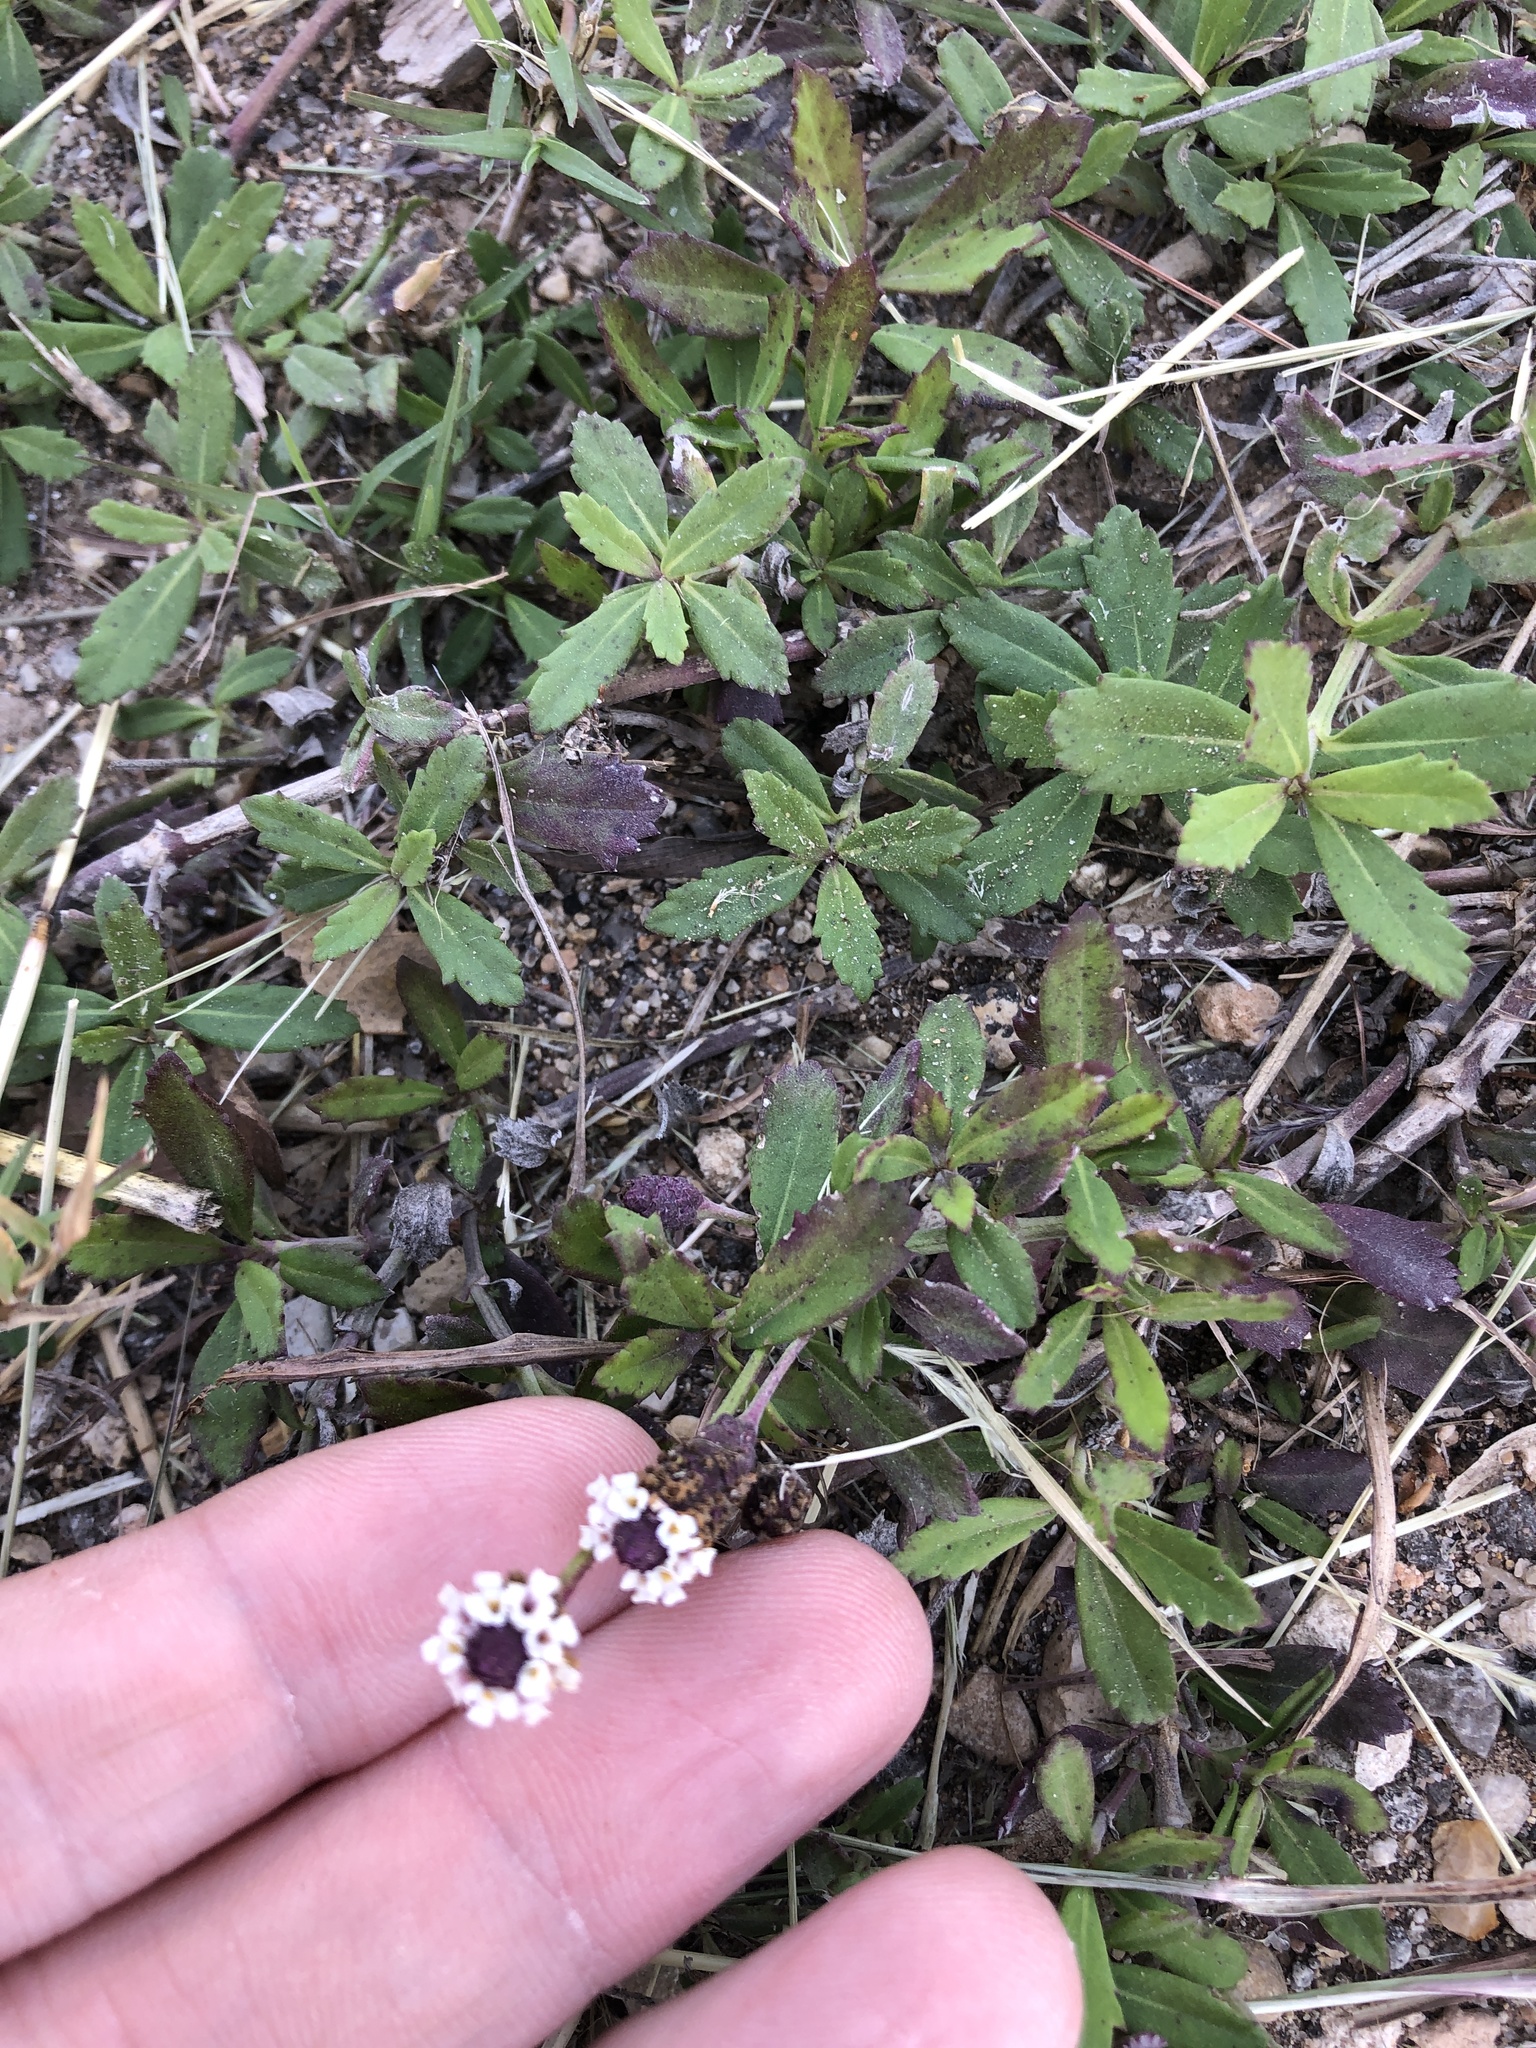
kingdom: Plantae
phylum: Tracheophyta
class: Magnoliopsida
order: Lamiales
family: Verbenaceae
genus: Phyla
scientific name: Phyla nodiflora
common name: Frogfruit
